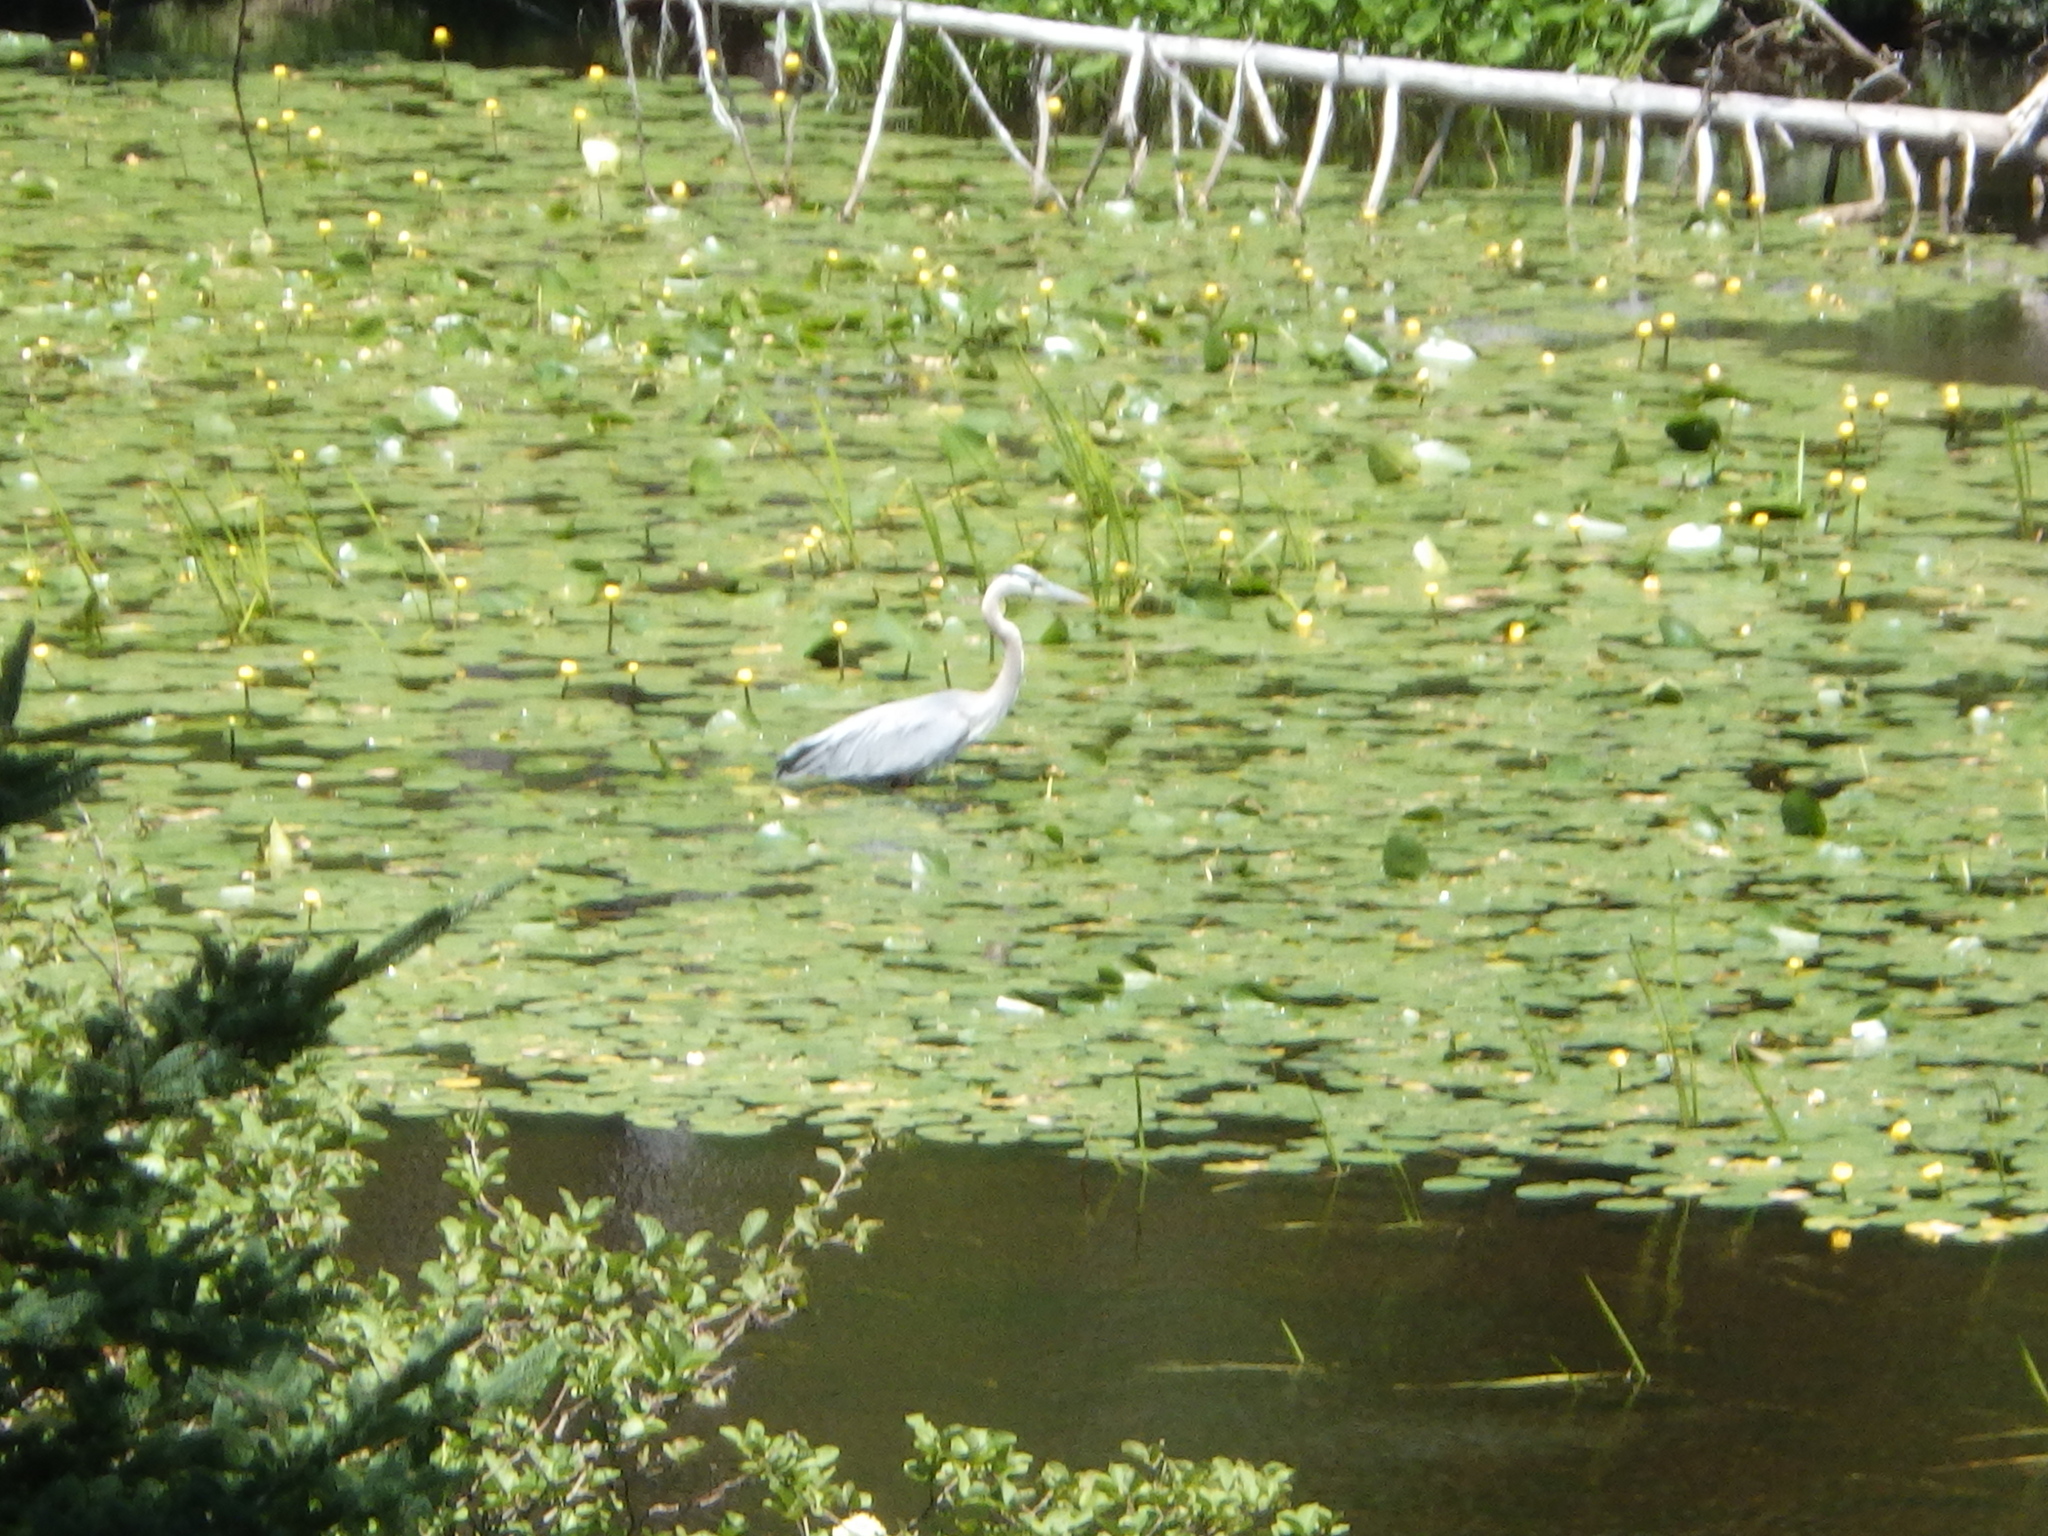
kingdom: Animalia
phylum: Chordata
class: Aves
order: Pelecaniformes
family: Ardeidae
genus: Ardea
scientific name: Ardea herodias
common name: Great blue heron
